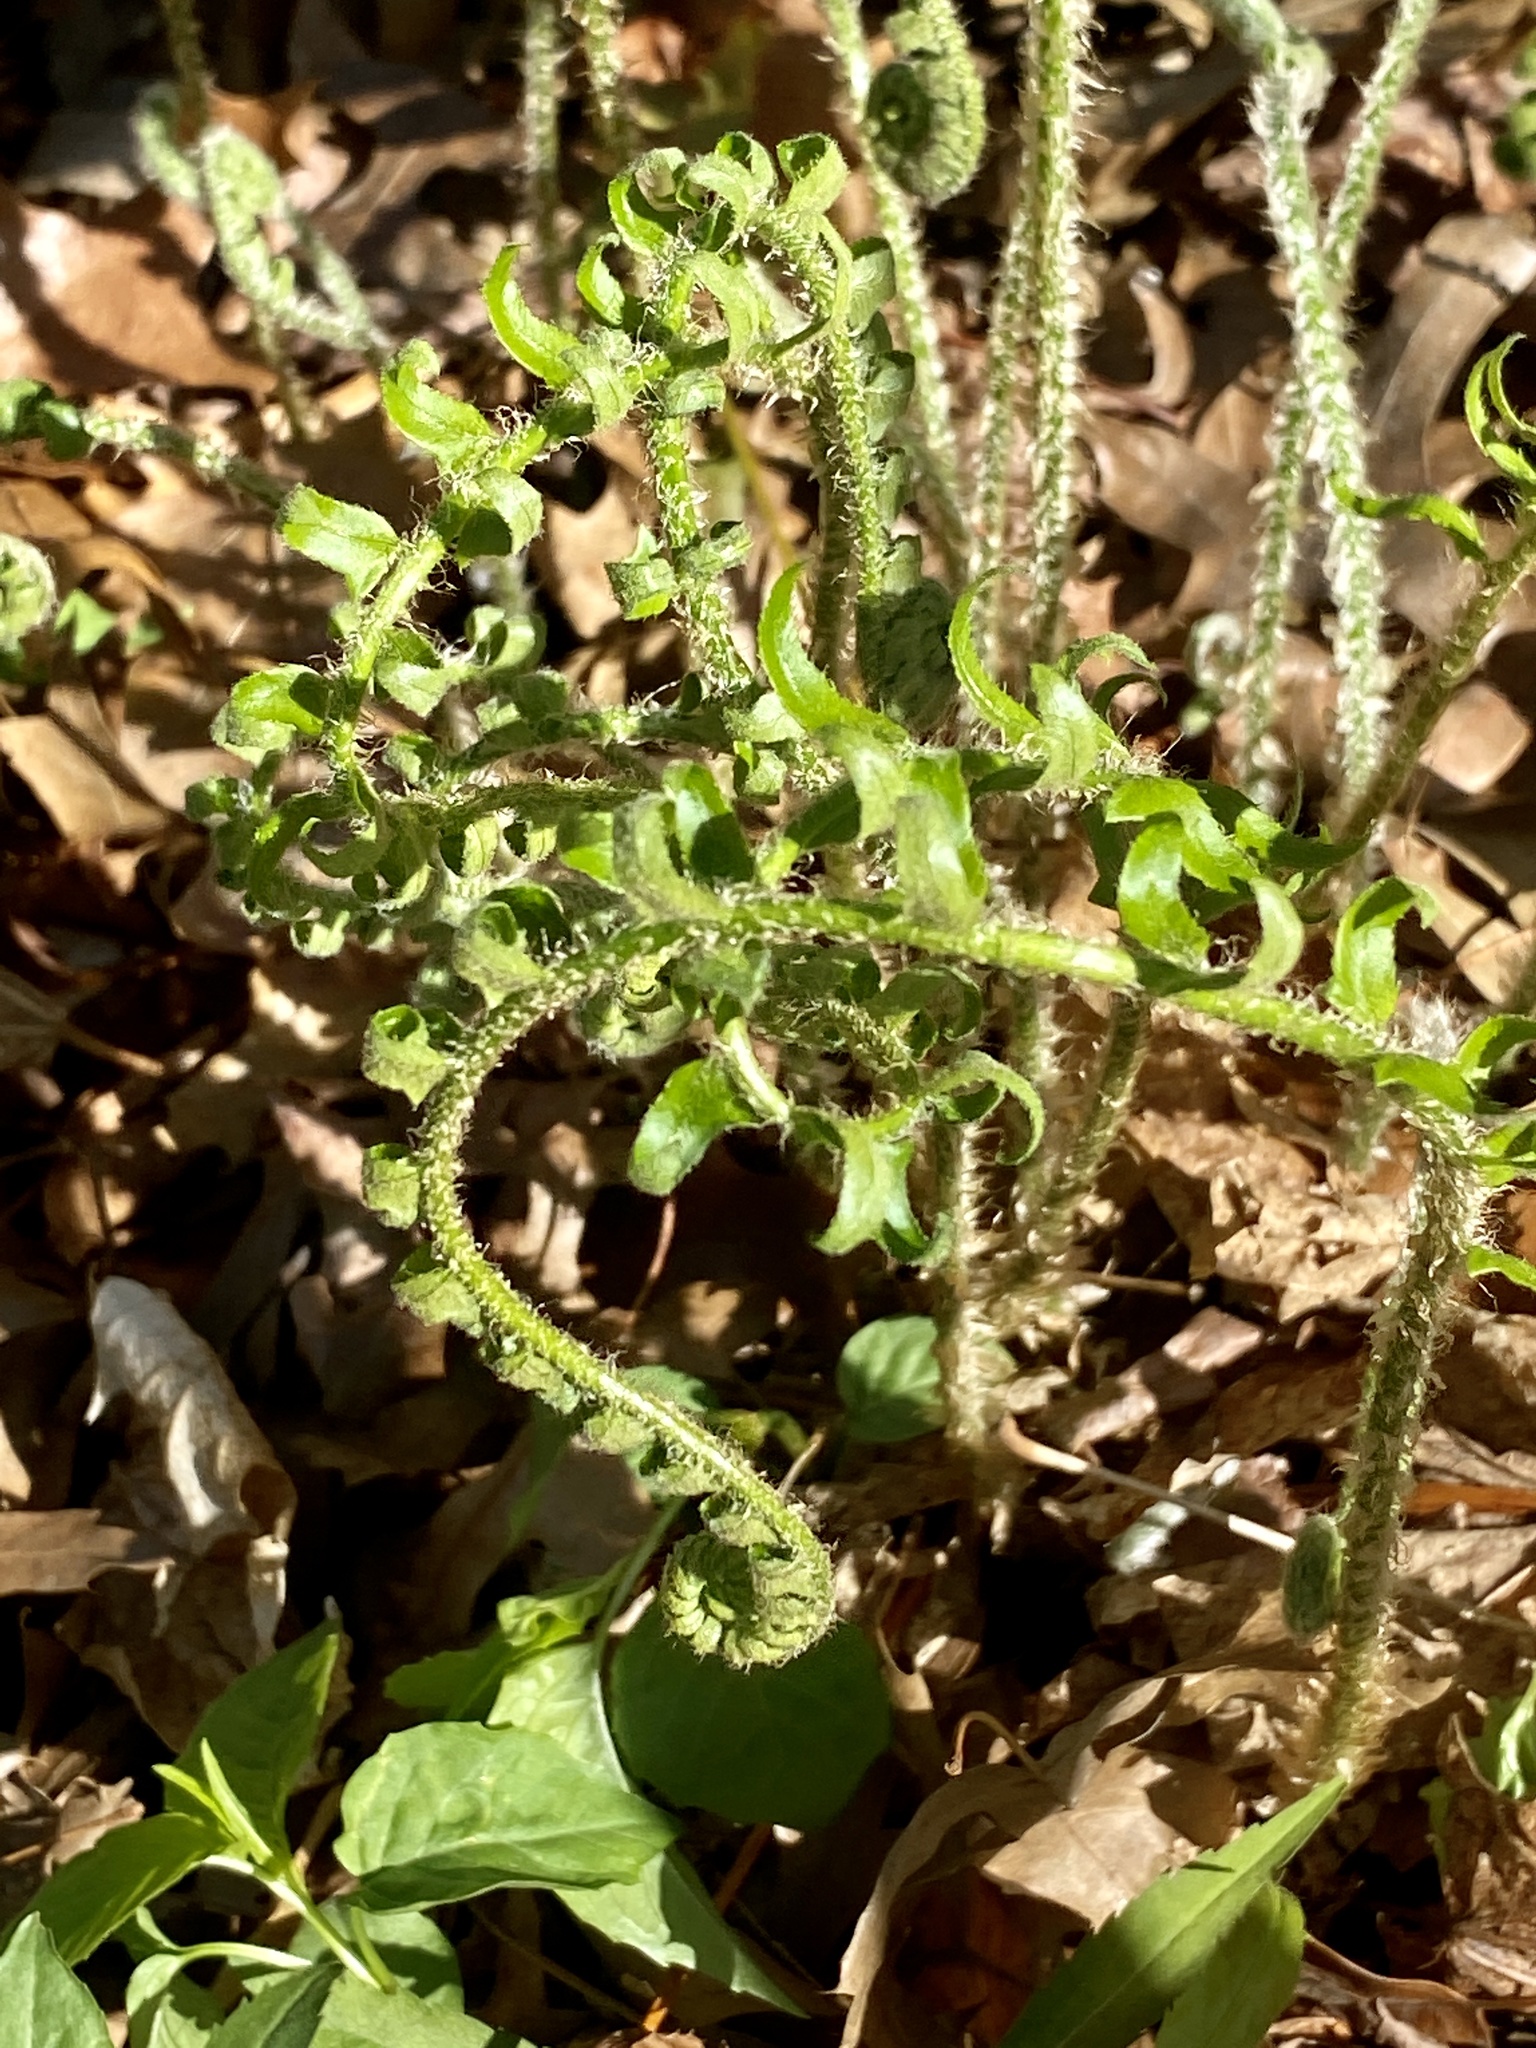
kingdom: Plantae
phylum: Tracheophyta
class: Polypodiopsida
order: Polypodiales
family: Dryopteridaceae
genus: Polystichum
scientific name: Polystichum acrostichoides
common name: Christmas fern
